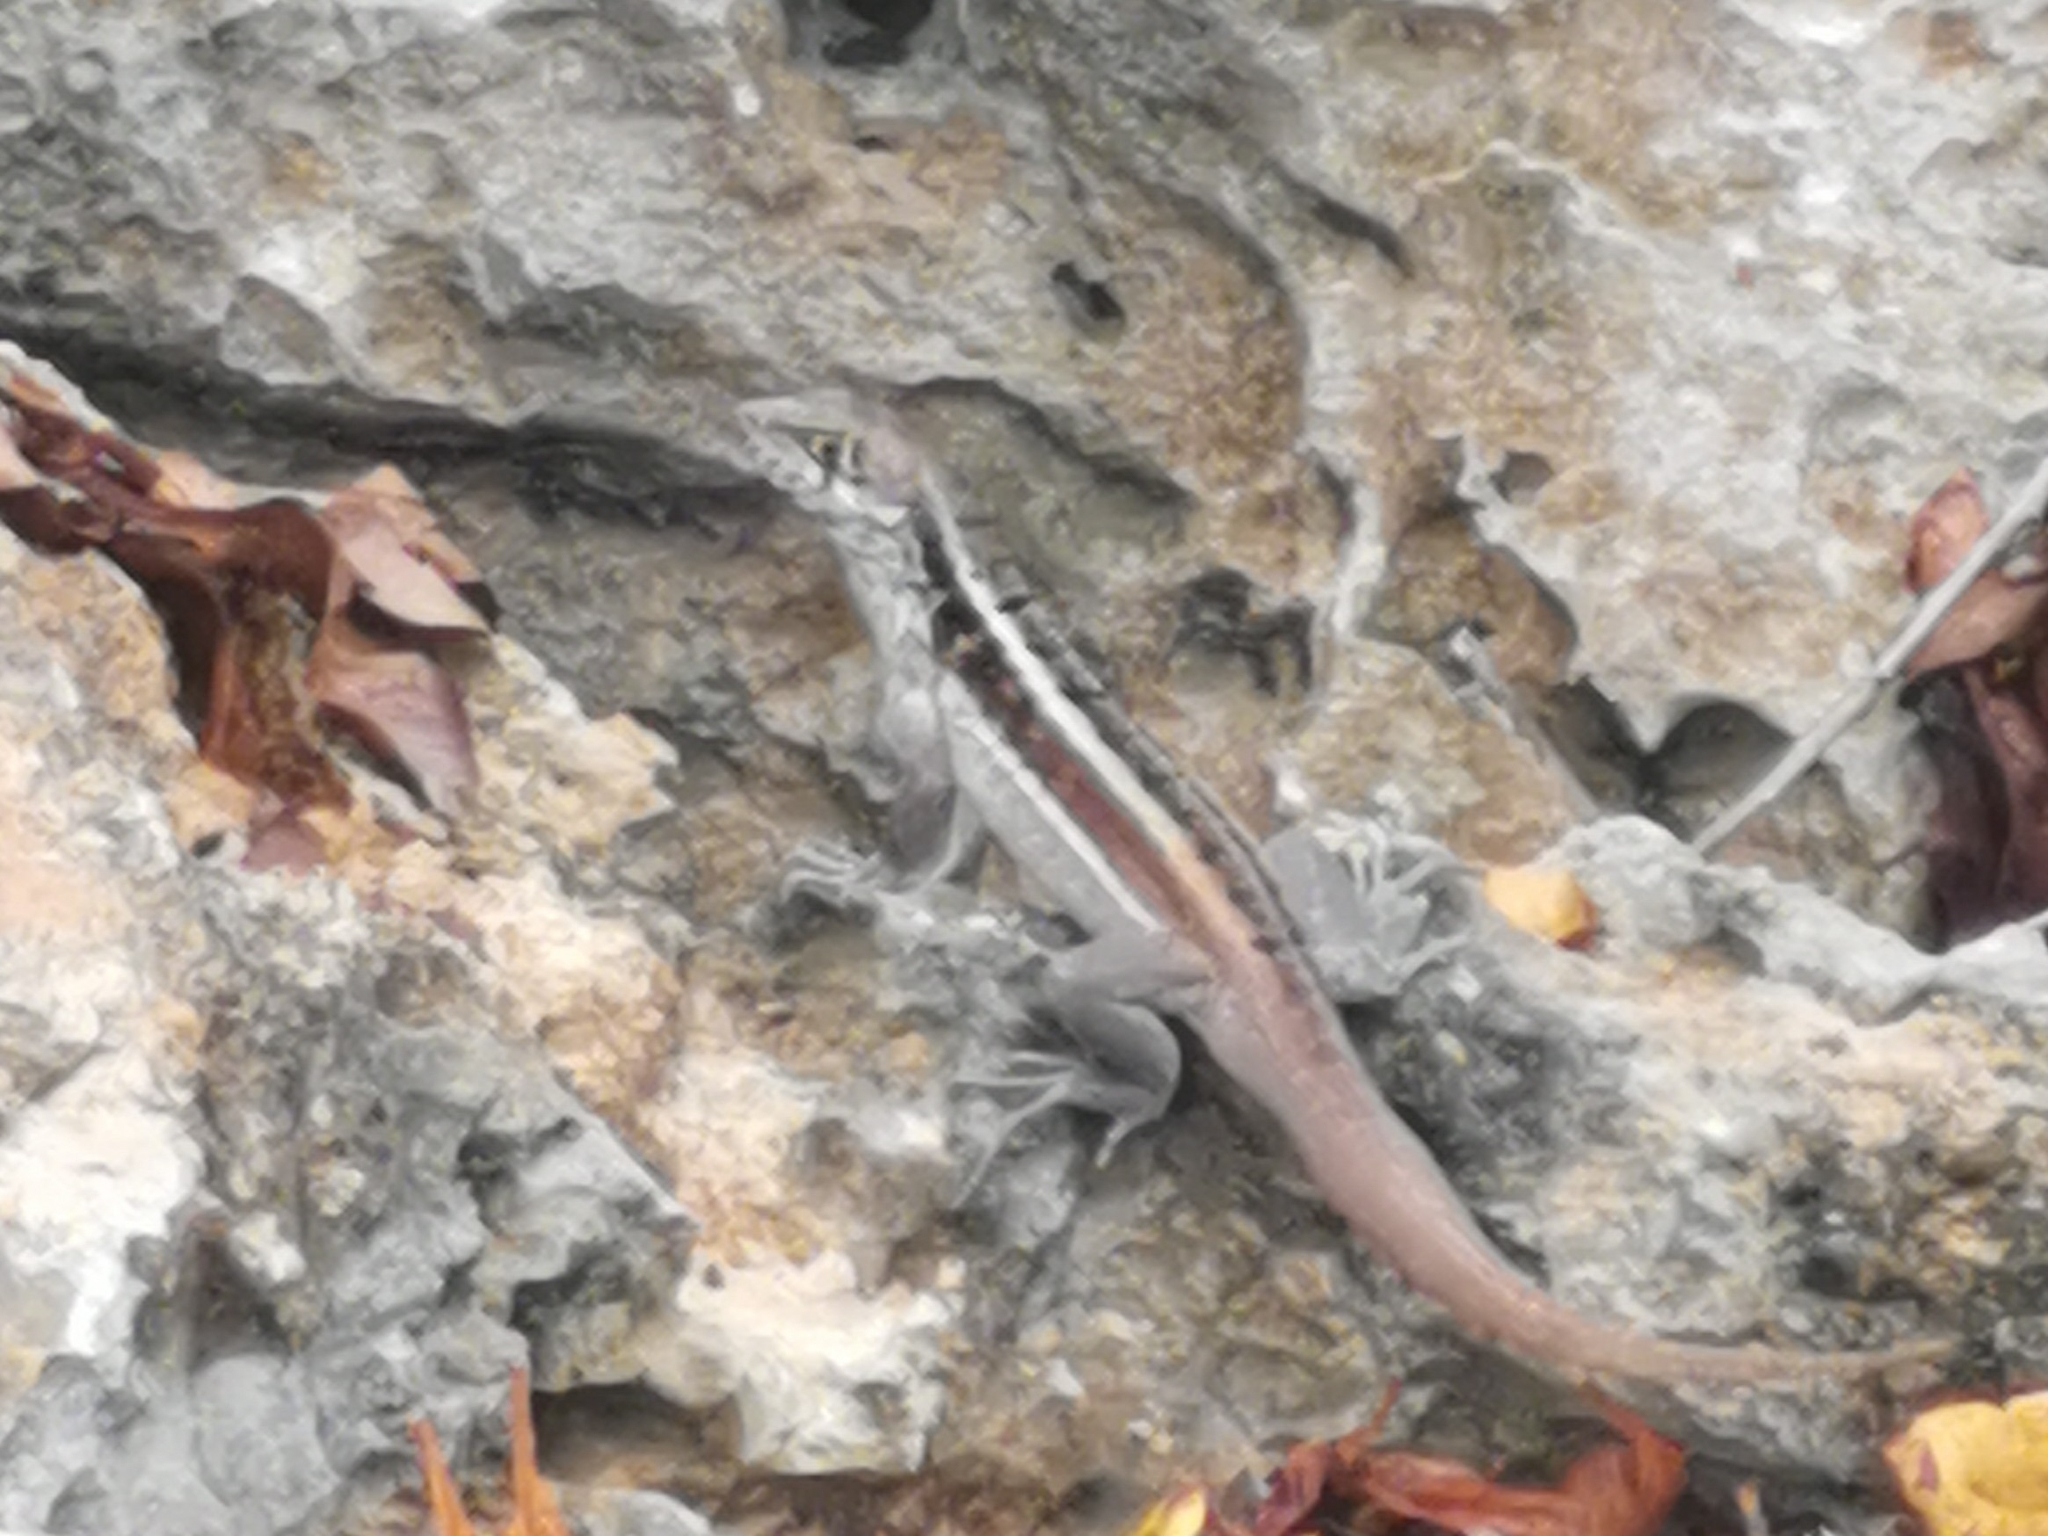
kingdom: Animalia
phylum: Chordata
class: Squamata
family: Leiocephalidae
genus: Leiocephalus
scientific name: Leiocephalus psammodromus
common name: Bastion cay curlytail lizard
